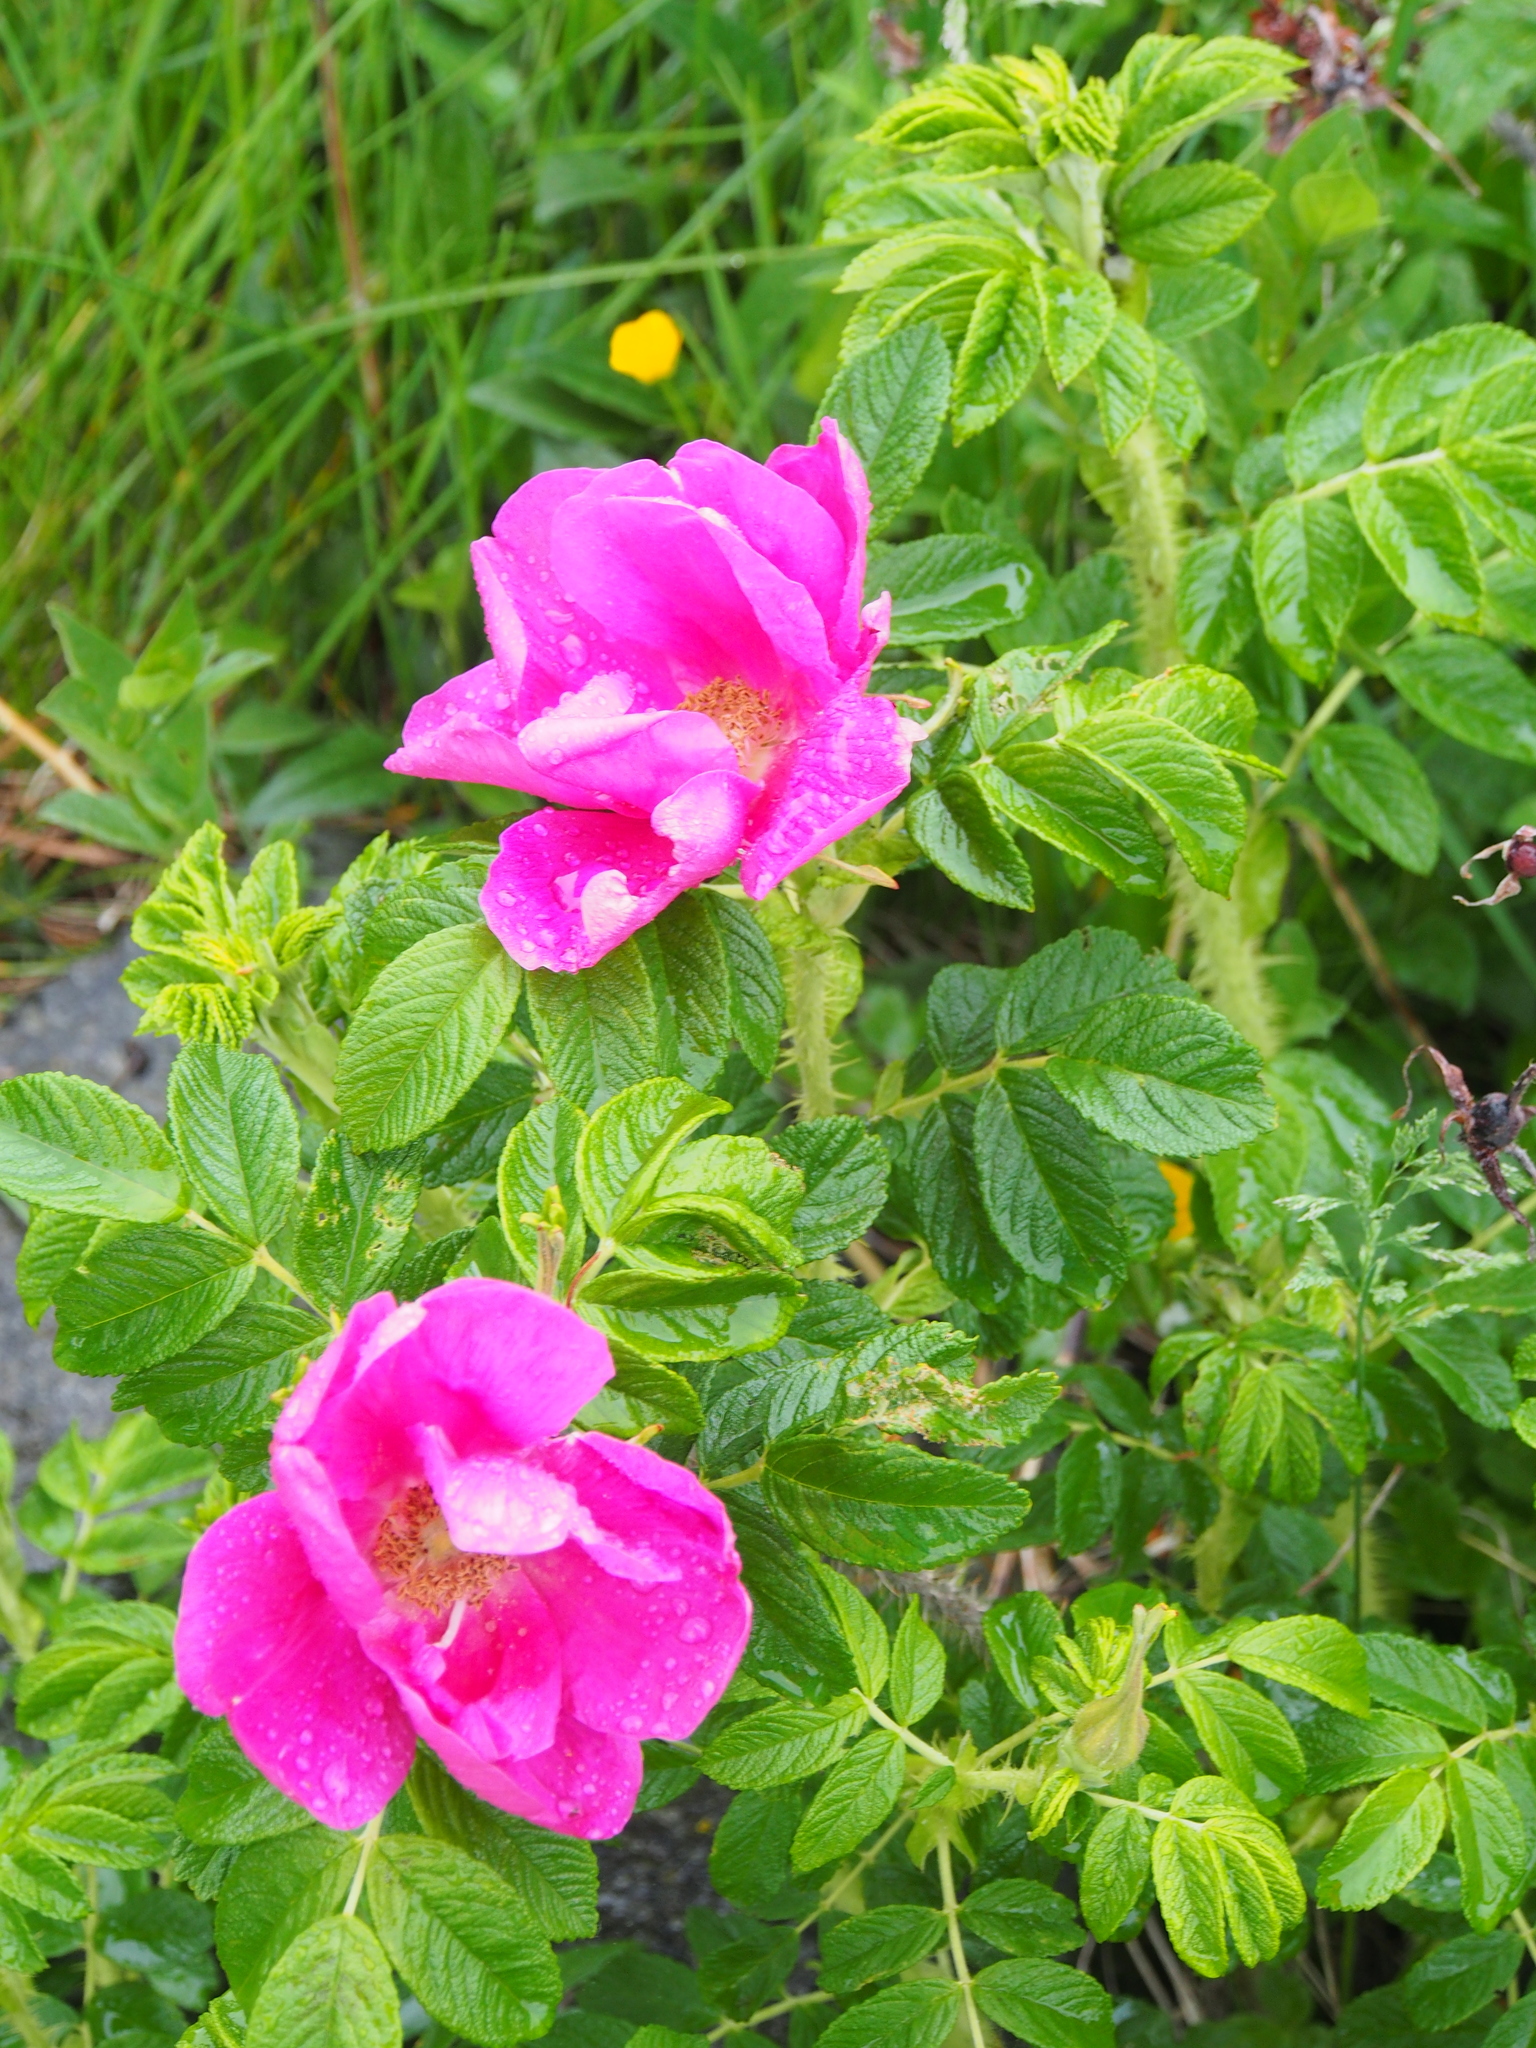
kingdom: Plantae
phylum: Tracheophyta
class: Magnoliopsida
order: Rosales
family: Rosaceae
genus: Rosa
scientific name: Rosa rugosa
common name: Japanese rose
